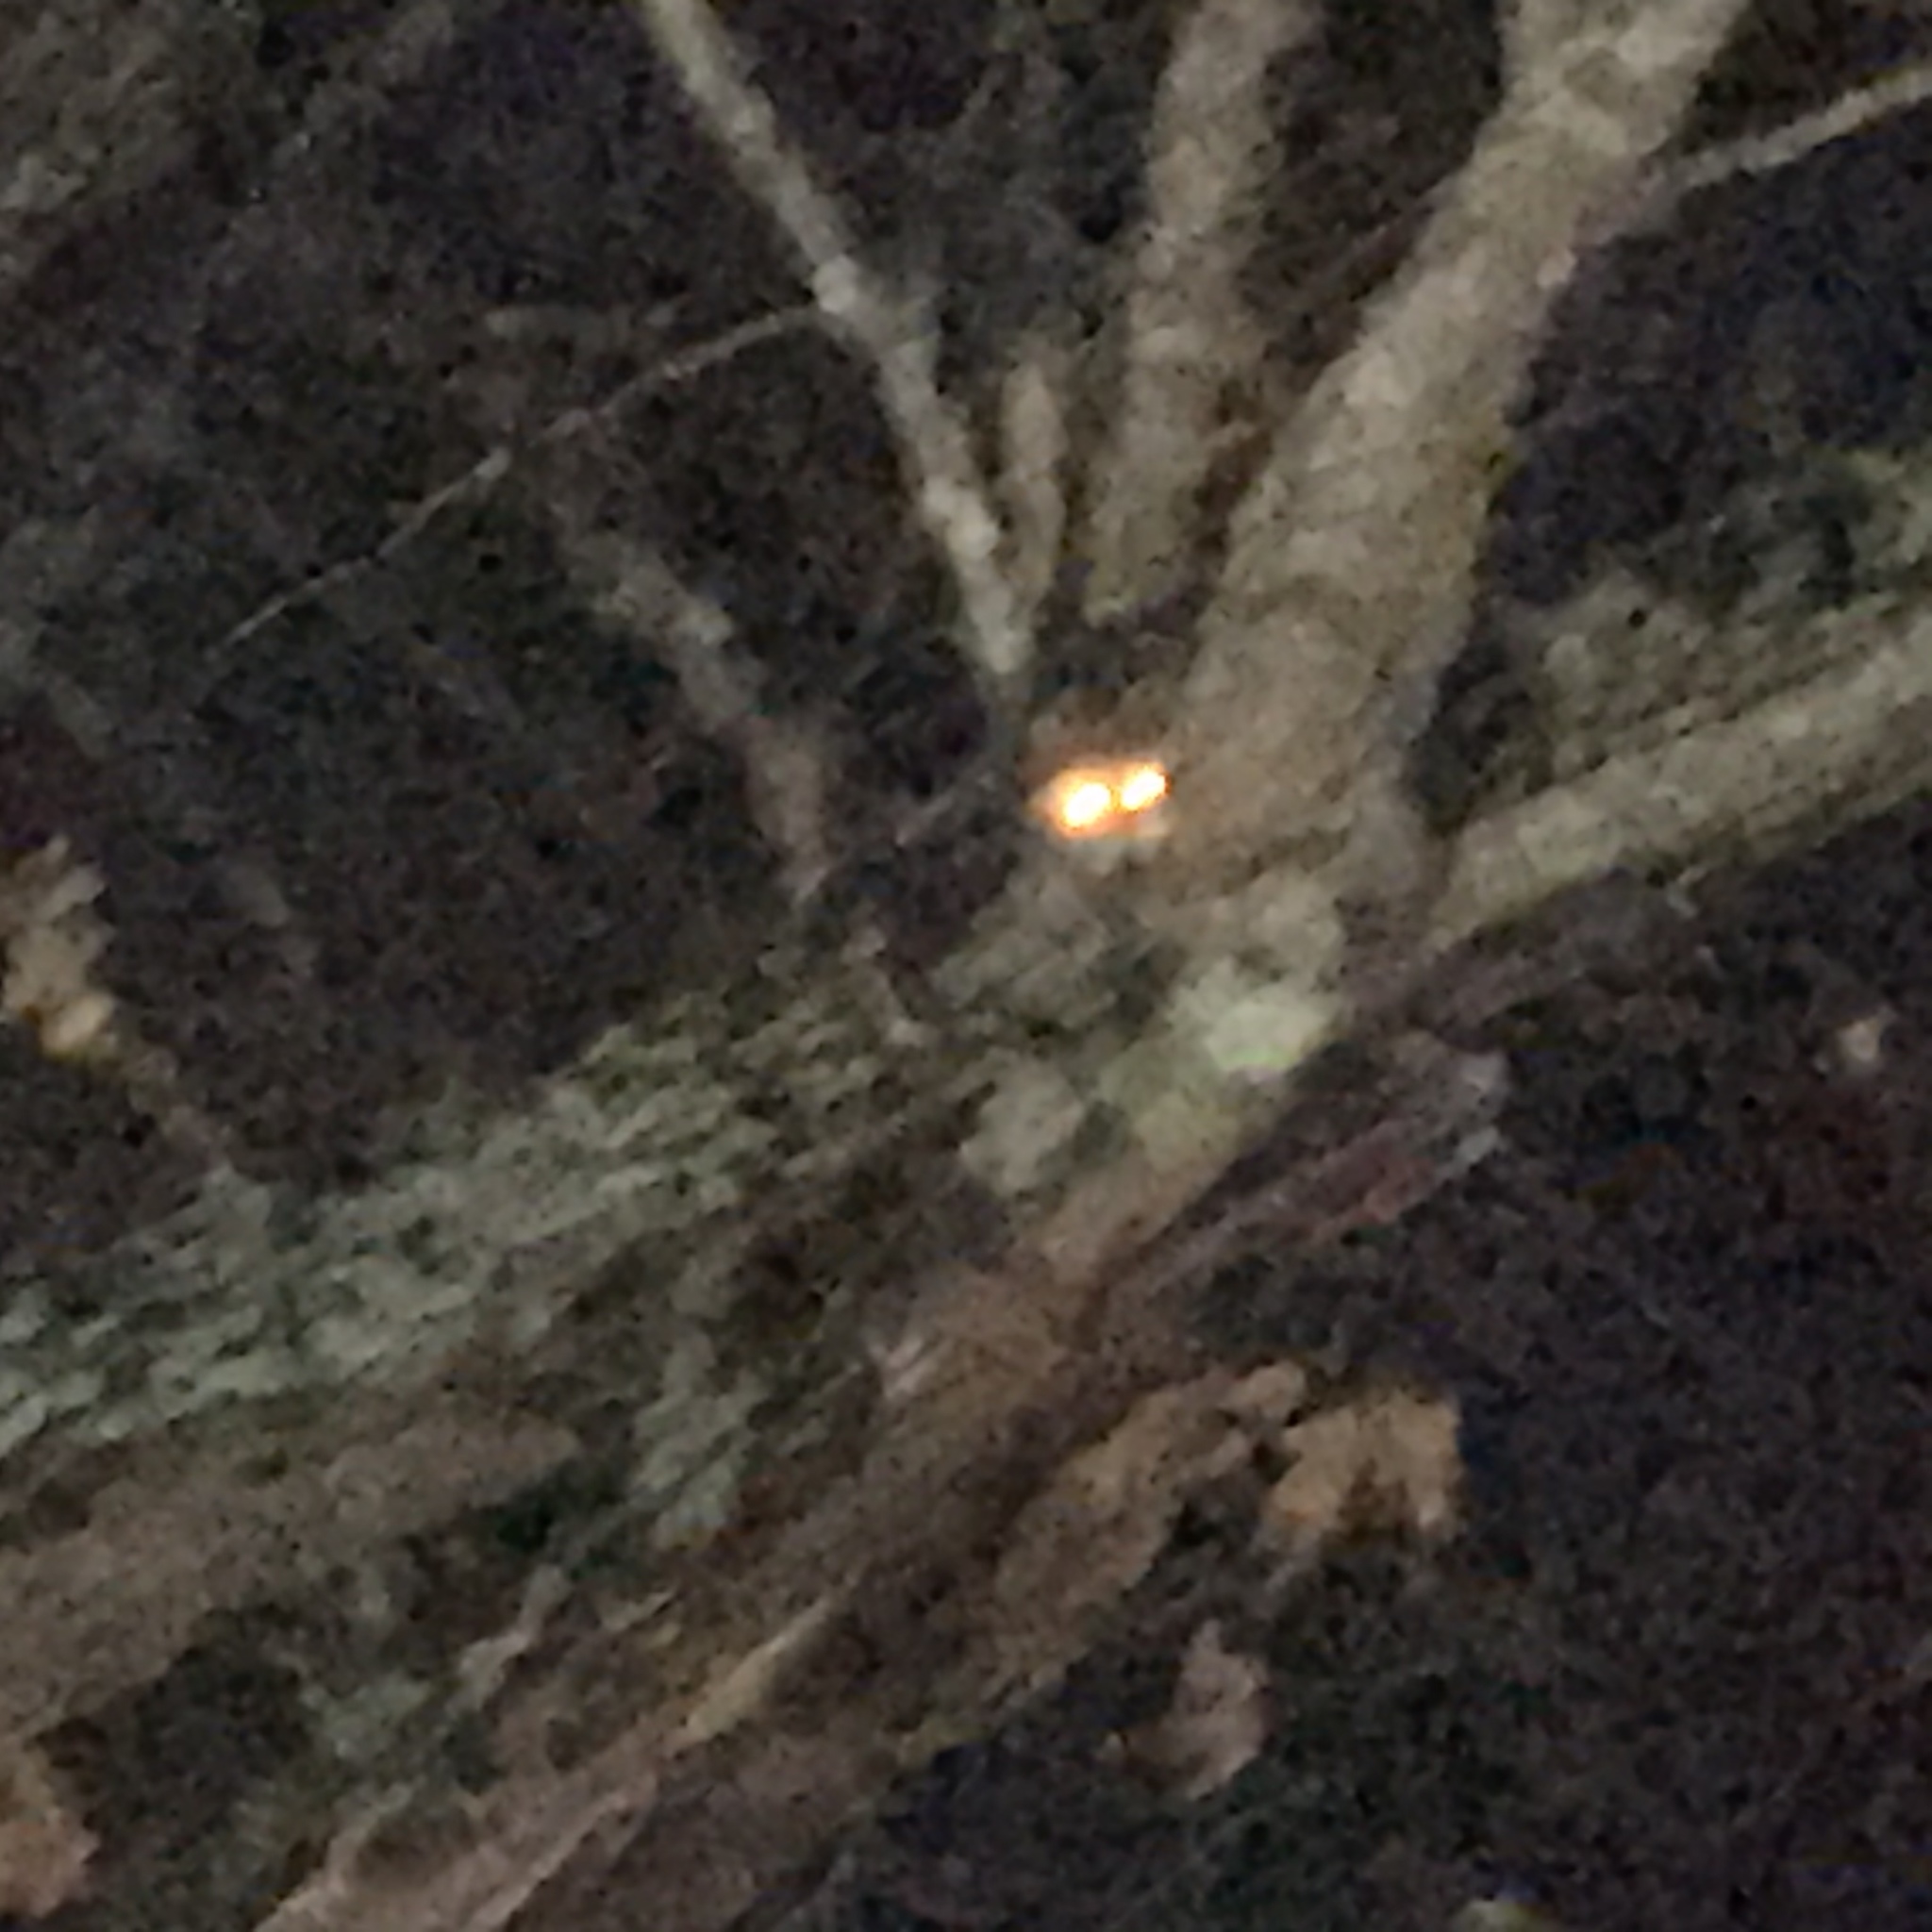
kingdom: Animalia
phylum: Chordata
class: Mammalia
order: Carnivora
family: Procyonidae
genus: Procyon
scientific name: Procyon lotor
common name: Raccoon
